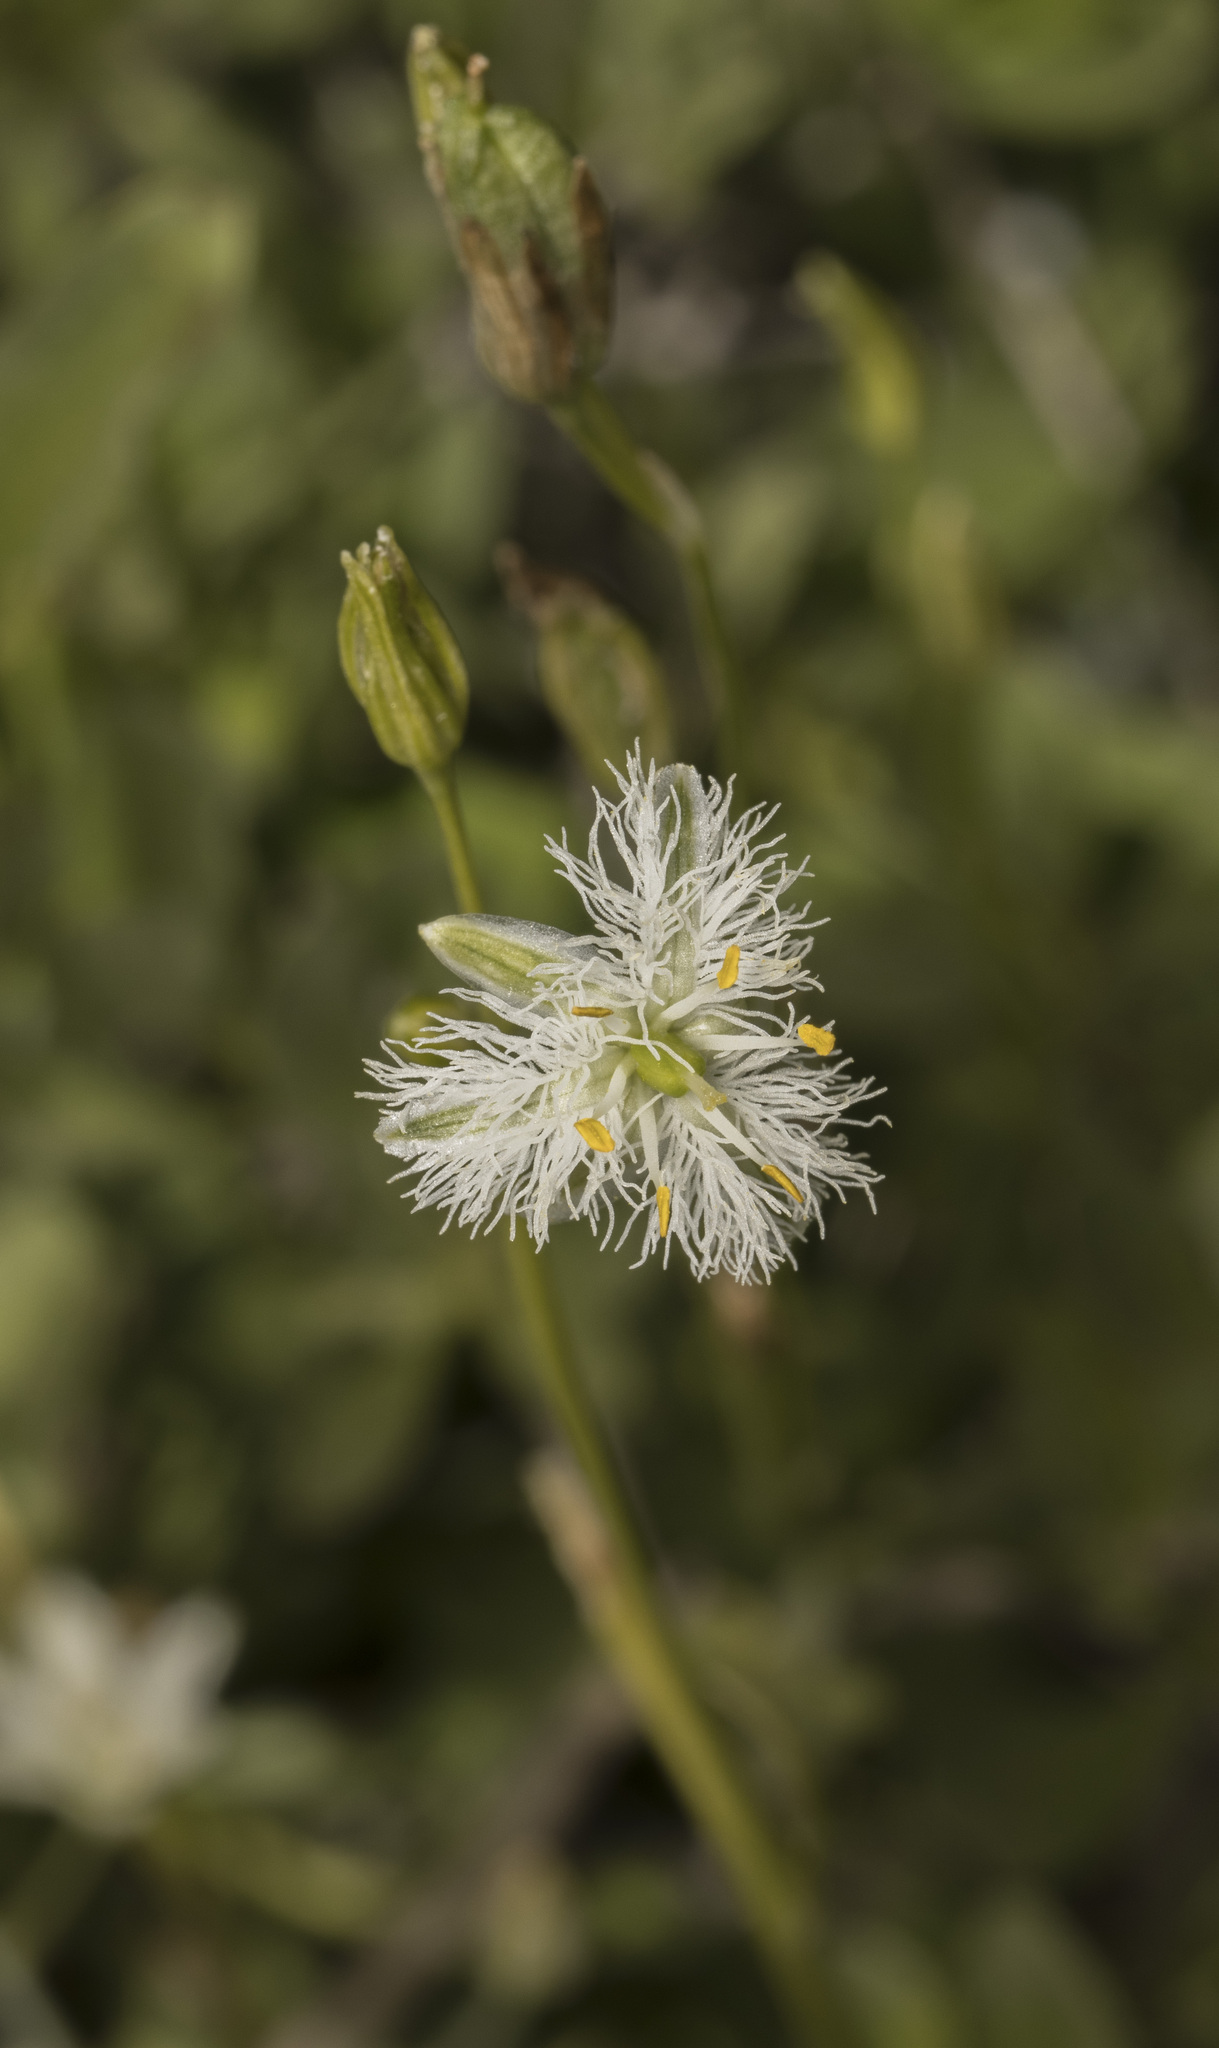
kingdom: Plantae
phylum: Tracheophyta
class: Liliopsida
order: Asparagales
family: Asparagaceae
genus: Trichopetalum
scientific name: Trichopetalum plumosum
